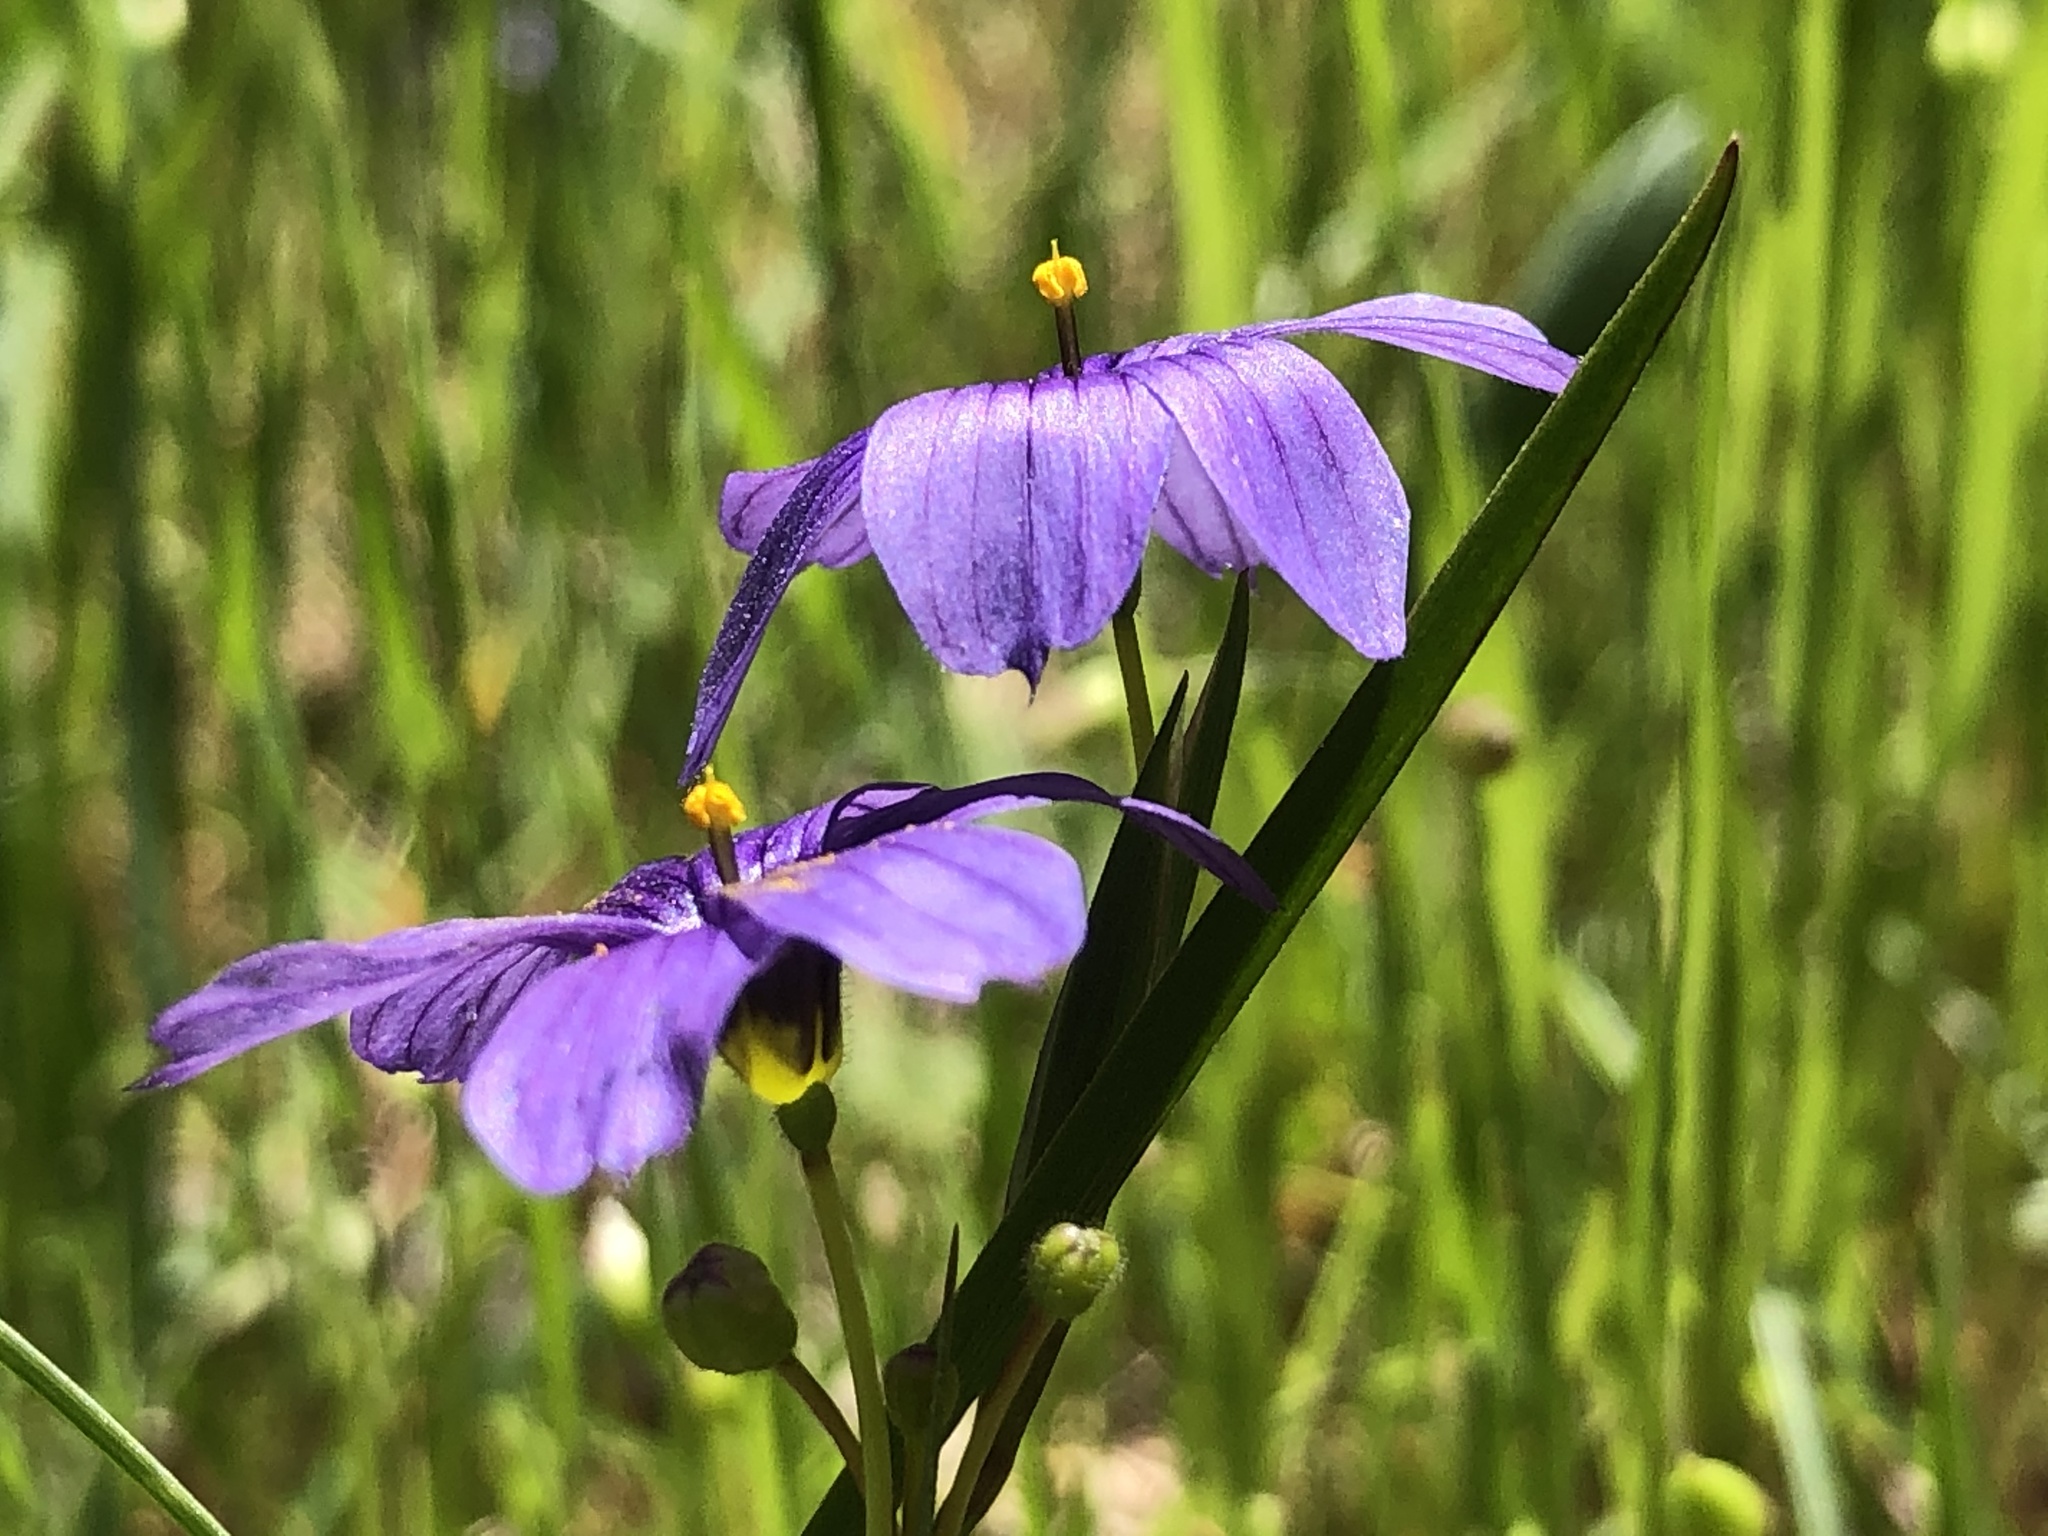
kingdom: Plantae
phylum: Tracheophyta
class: Liliopsida
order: Asparagales
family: Iridaceae
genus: Sisyrinchium
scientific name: Sisyrinchium bellum
